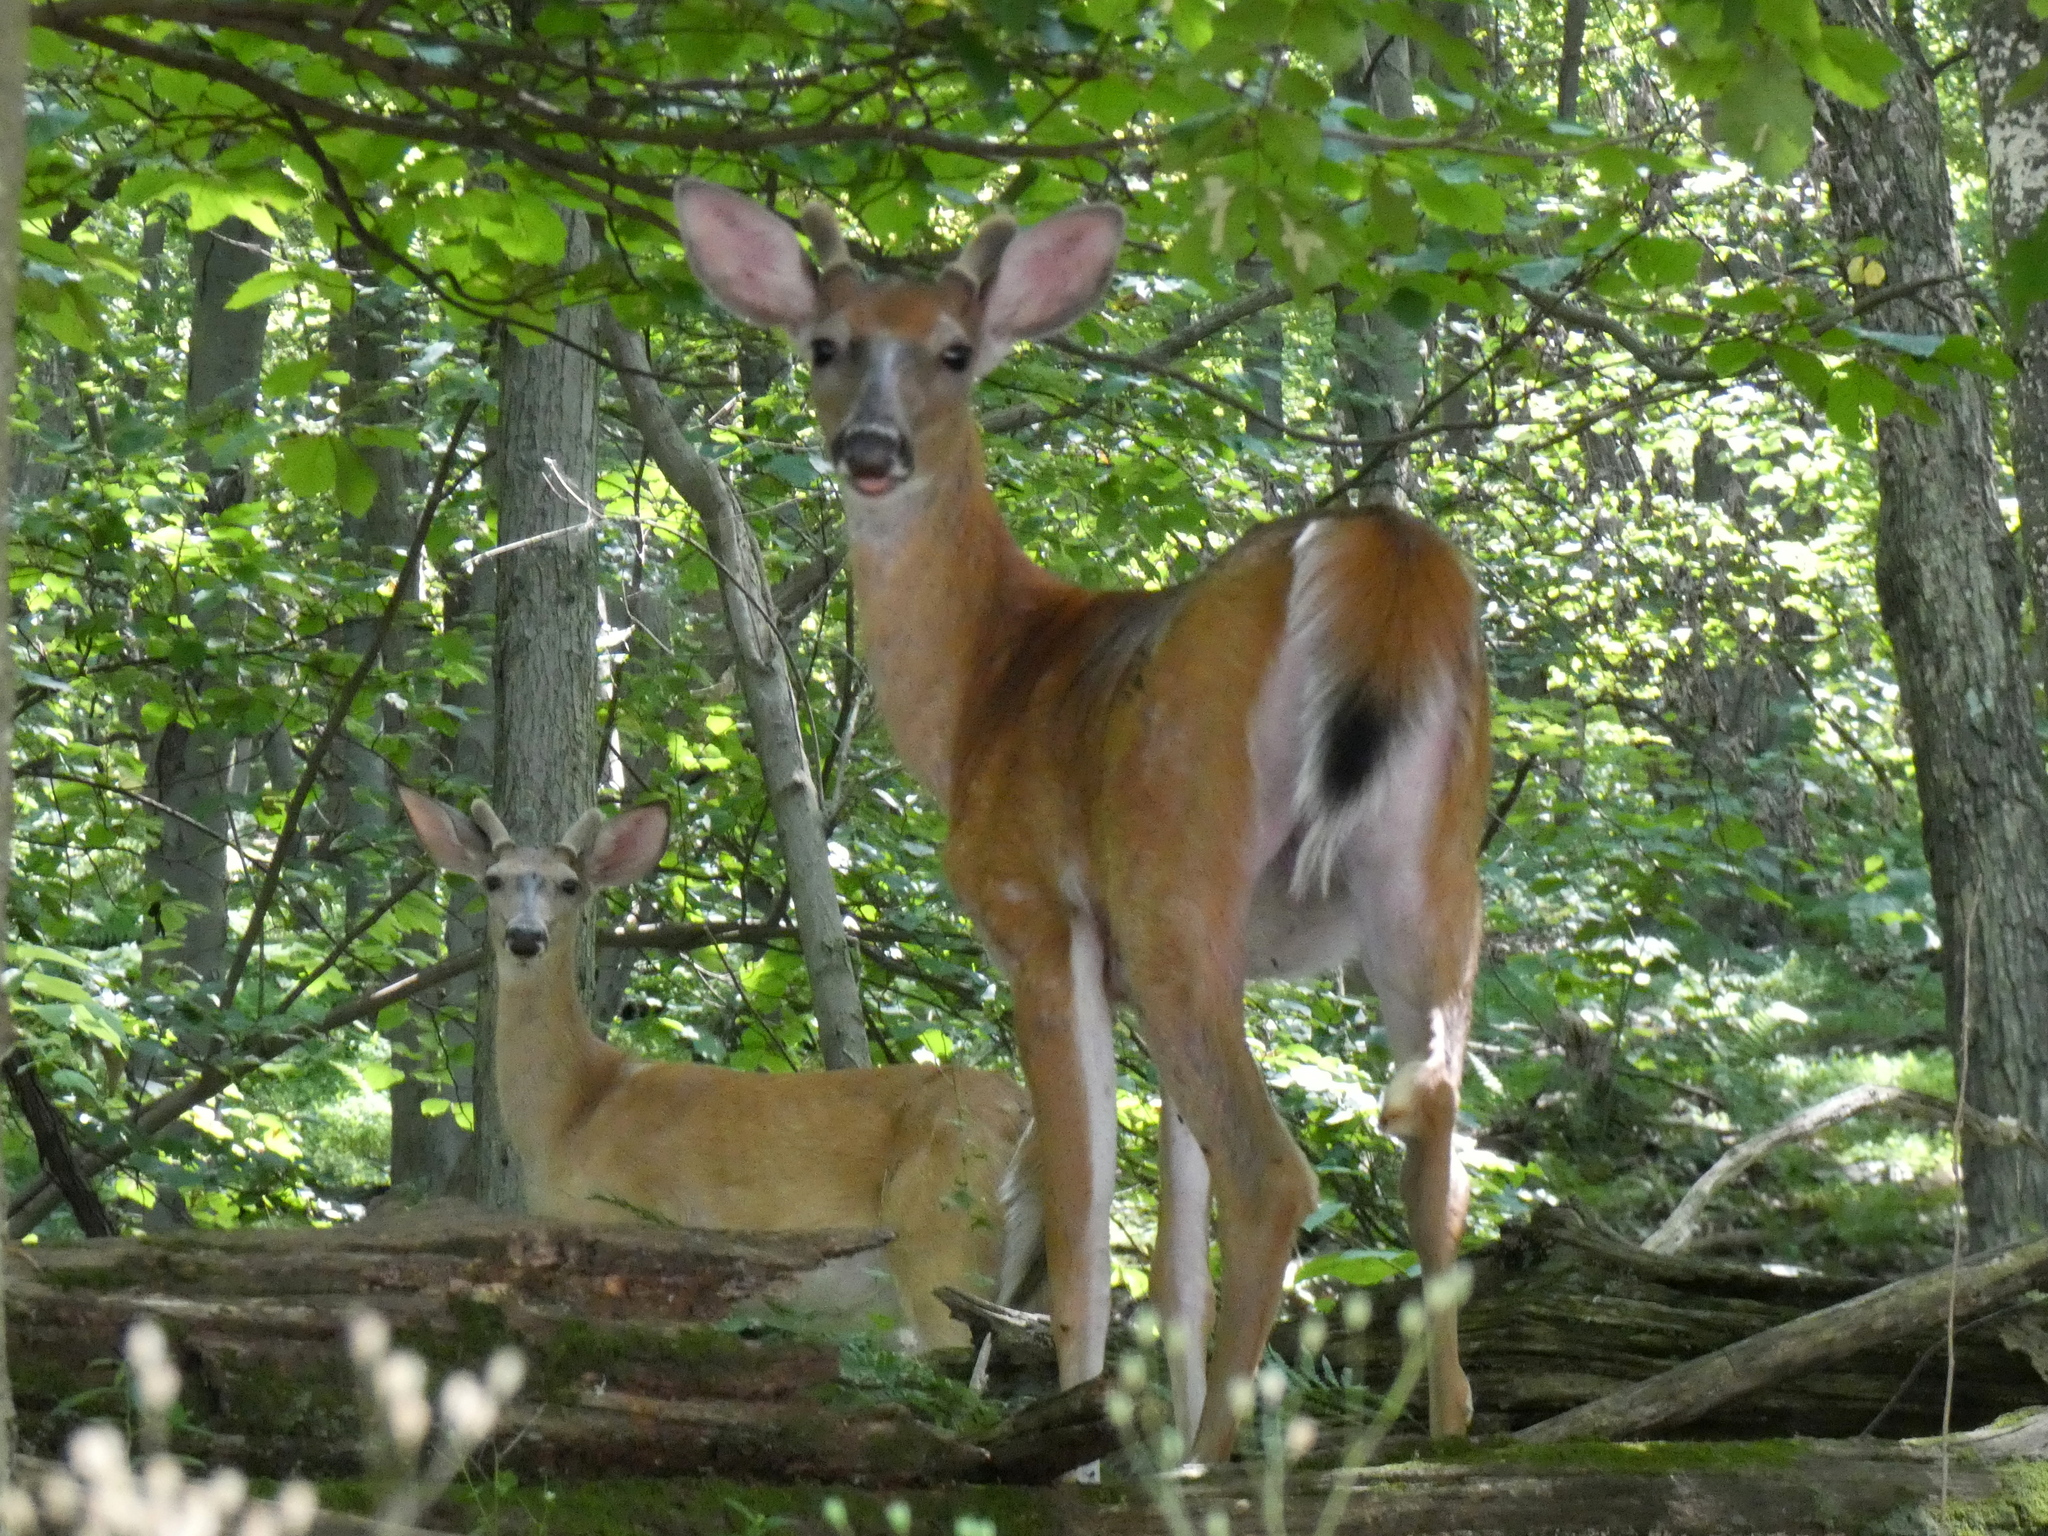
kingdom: Animalia
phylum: Chordata
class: Mammalia
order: Artiodactyla
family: Cervidae
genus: Odocoileus
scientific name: Odocoileus virginianus
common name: White-tailed deer
